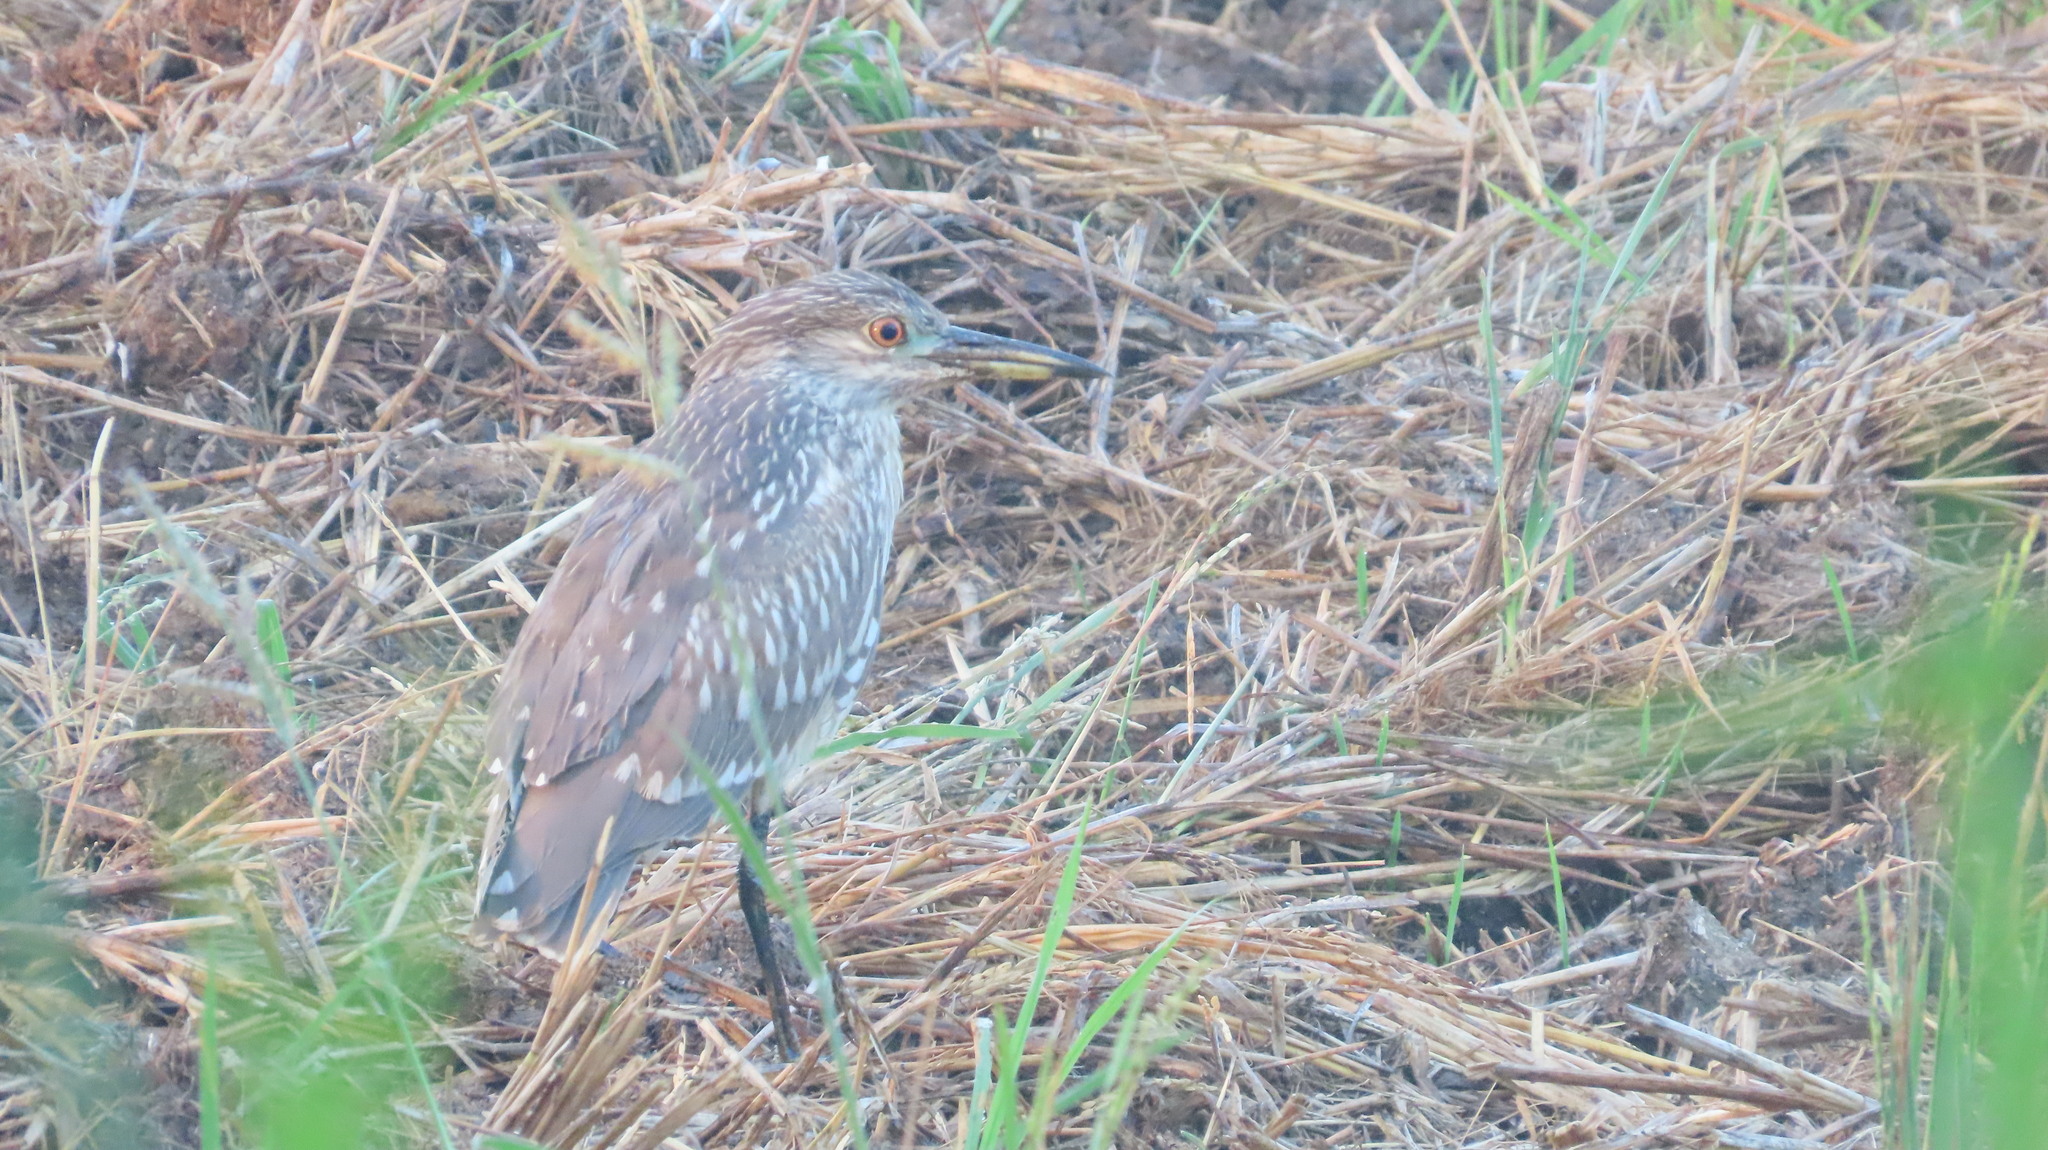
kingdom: Animalia
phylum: Chordata
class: Aves
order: Pelecaniformes
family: Ardeidae
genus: Nycticorax
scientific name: Nycticorax nycticorax
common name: Black-crowned night heron
